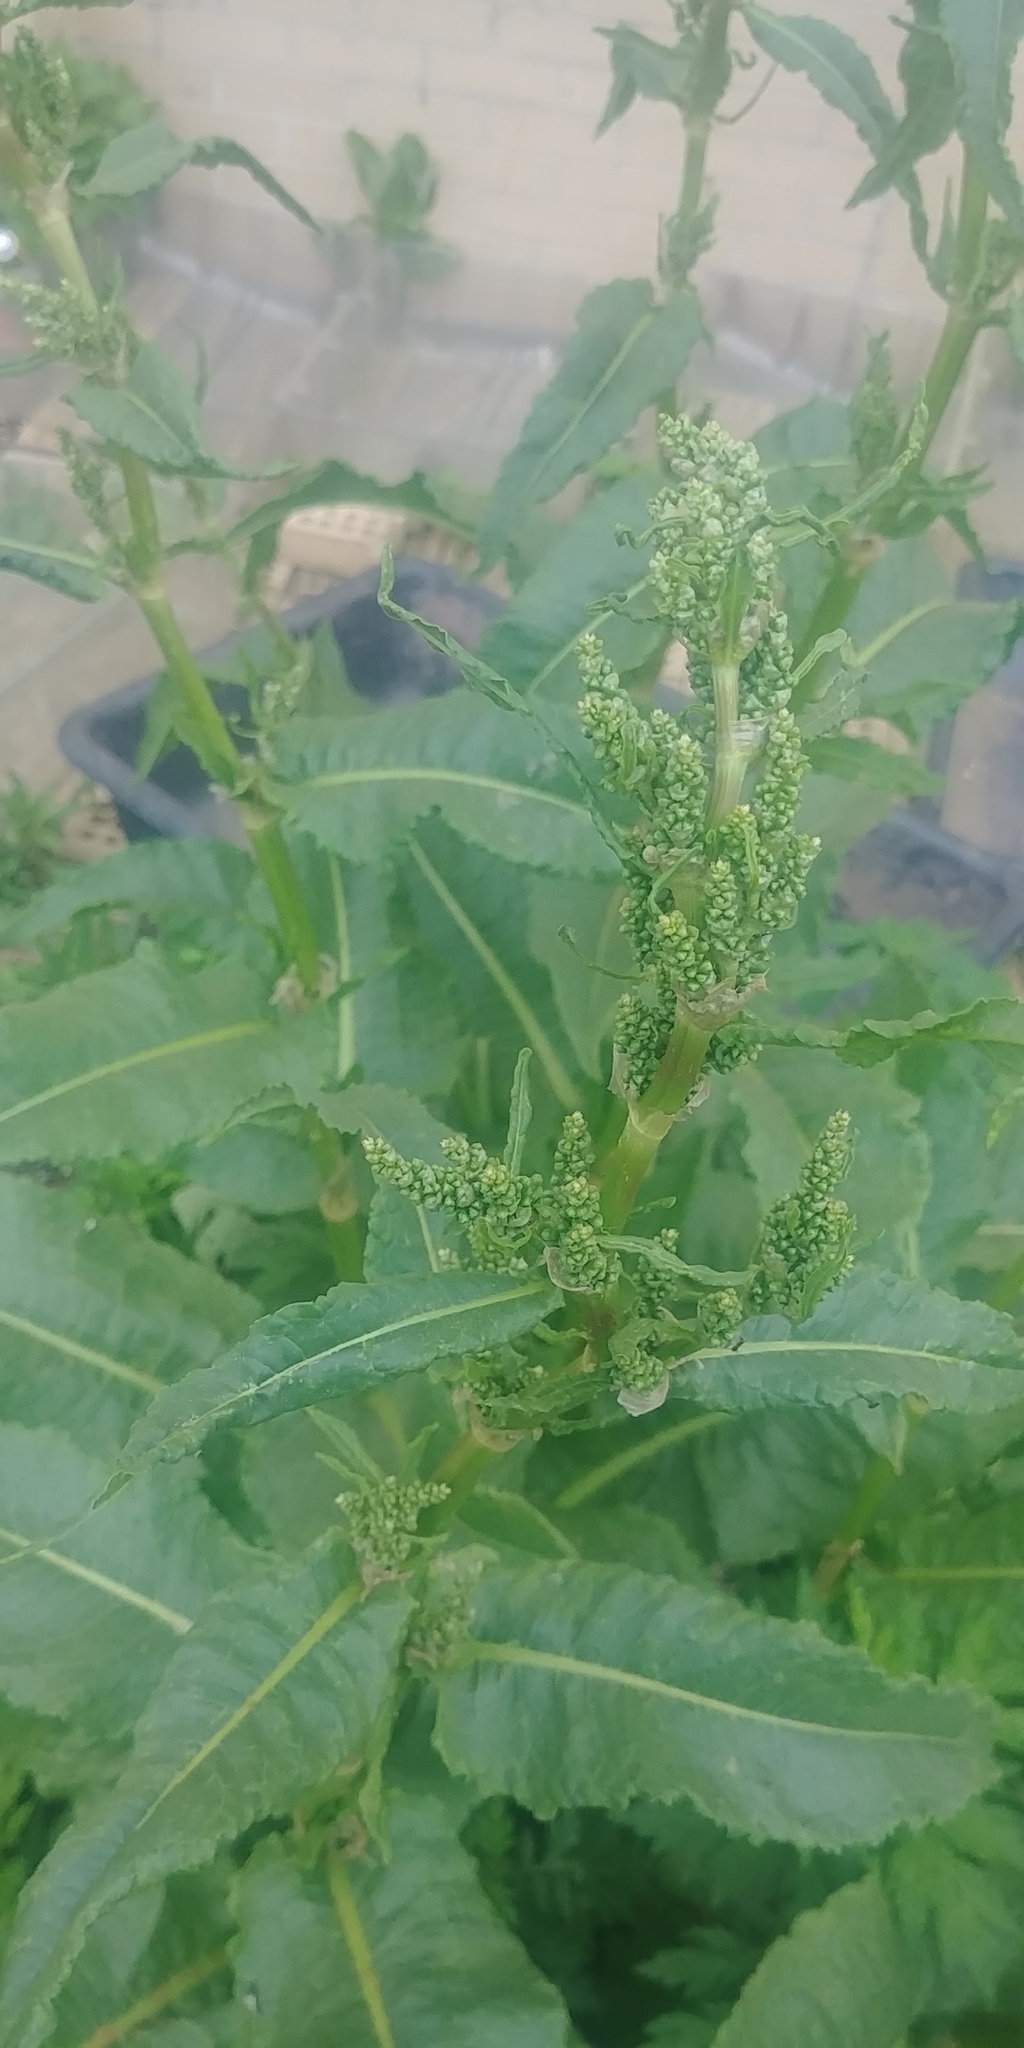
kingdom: Plantae
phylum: Tracheophyta
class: Magnoliopsida
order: Caryophyllales
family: Polygonaceae
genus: Rumex
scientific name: Rumex crispus
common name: Curled dock
